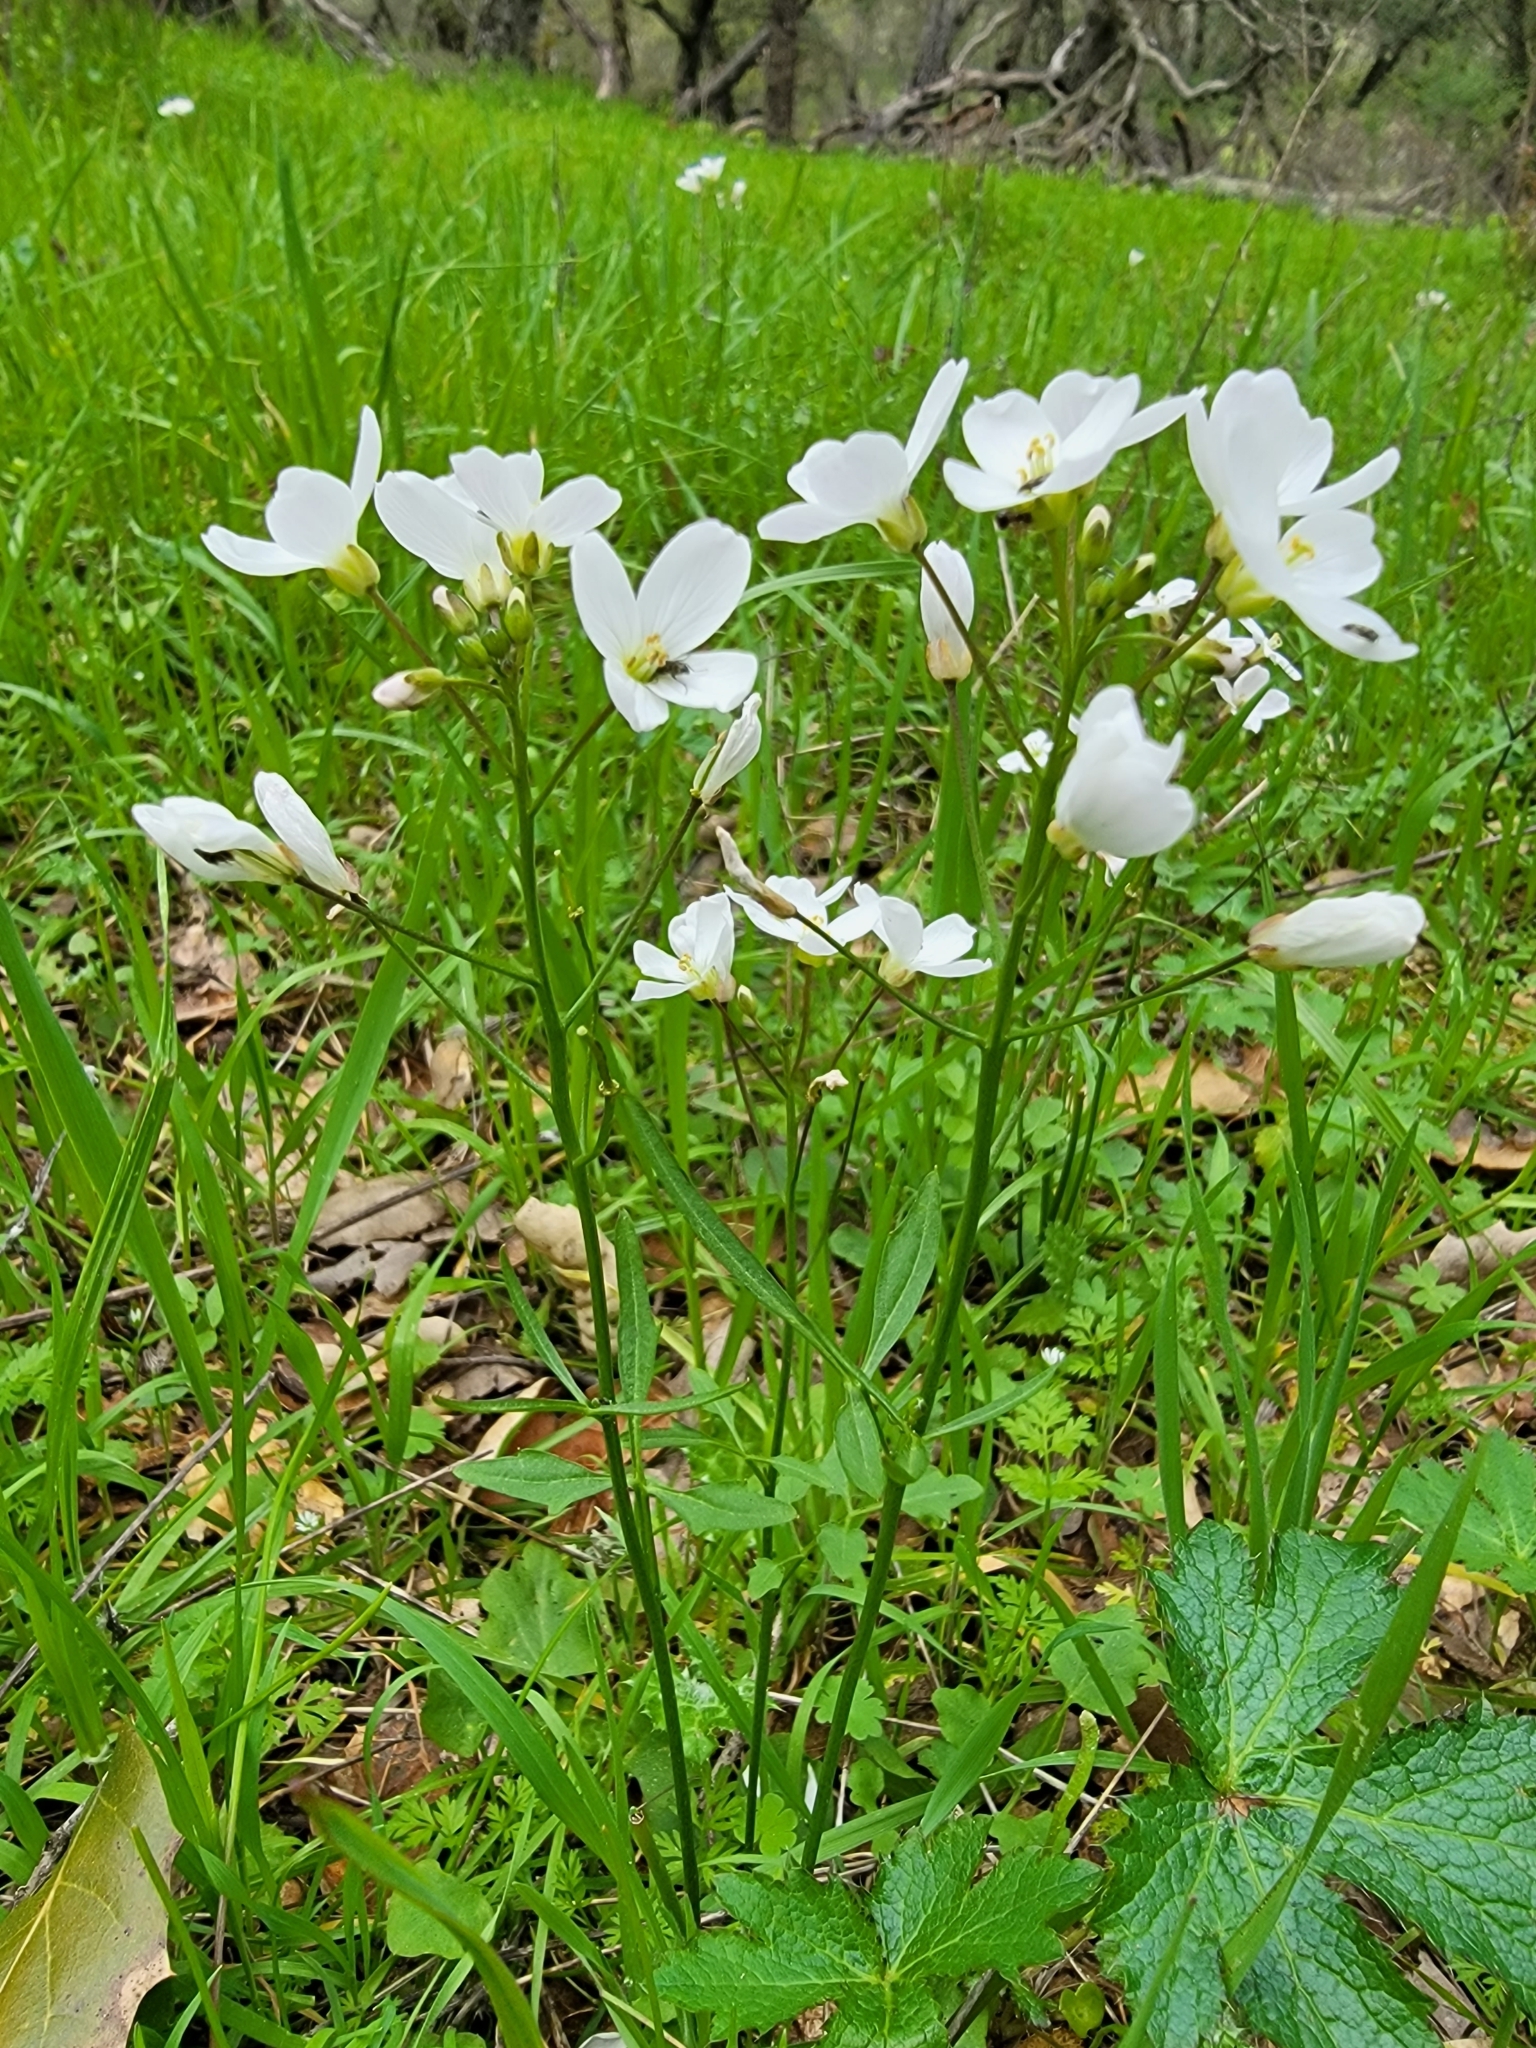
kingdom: Plantae
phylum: Tracheophyta
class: Magnoliopsida
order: Brassicales
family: Brassicaceae
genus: Cardamine
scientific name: Cardamine californica
